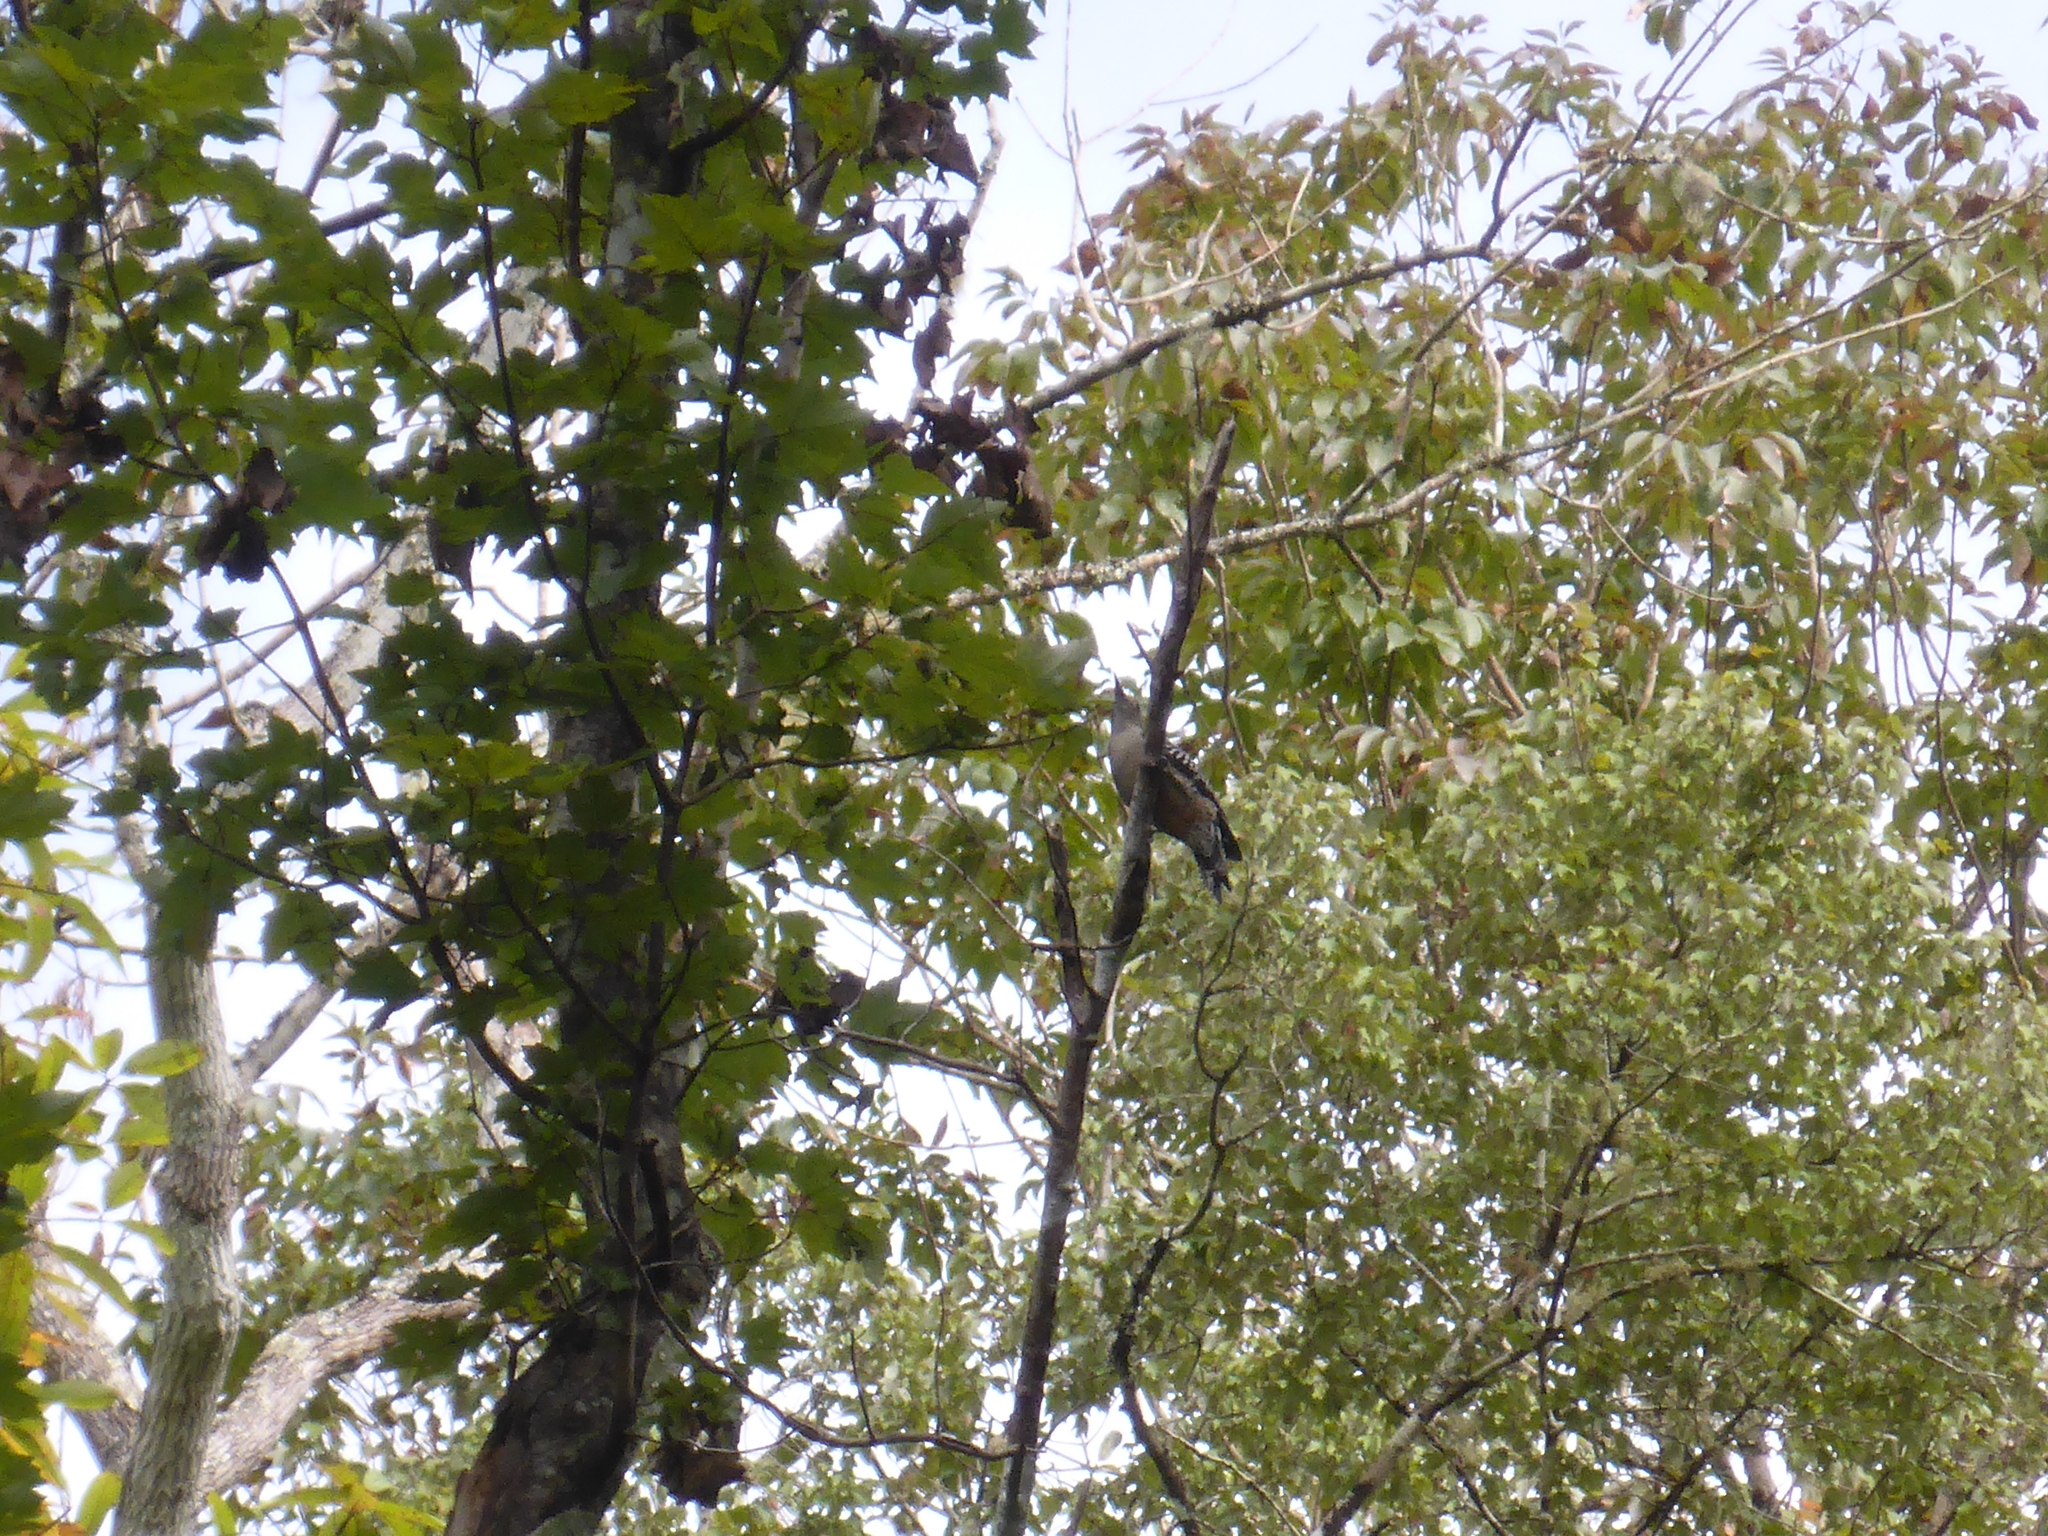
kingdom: Animalia
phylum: Chordata
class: Aves
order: Piciformes
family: Picidae
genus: Melanerpes
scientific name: Melanerpes carolinus
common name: Red-bellied woodpecker
